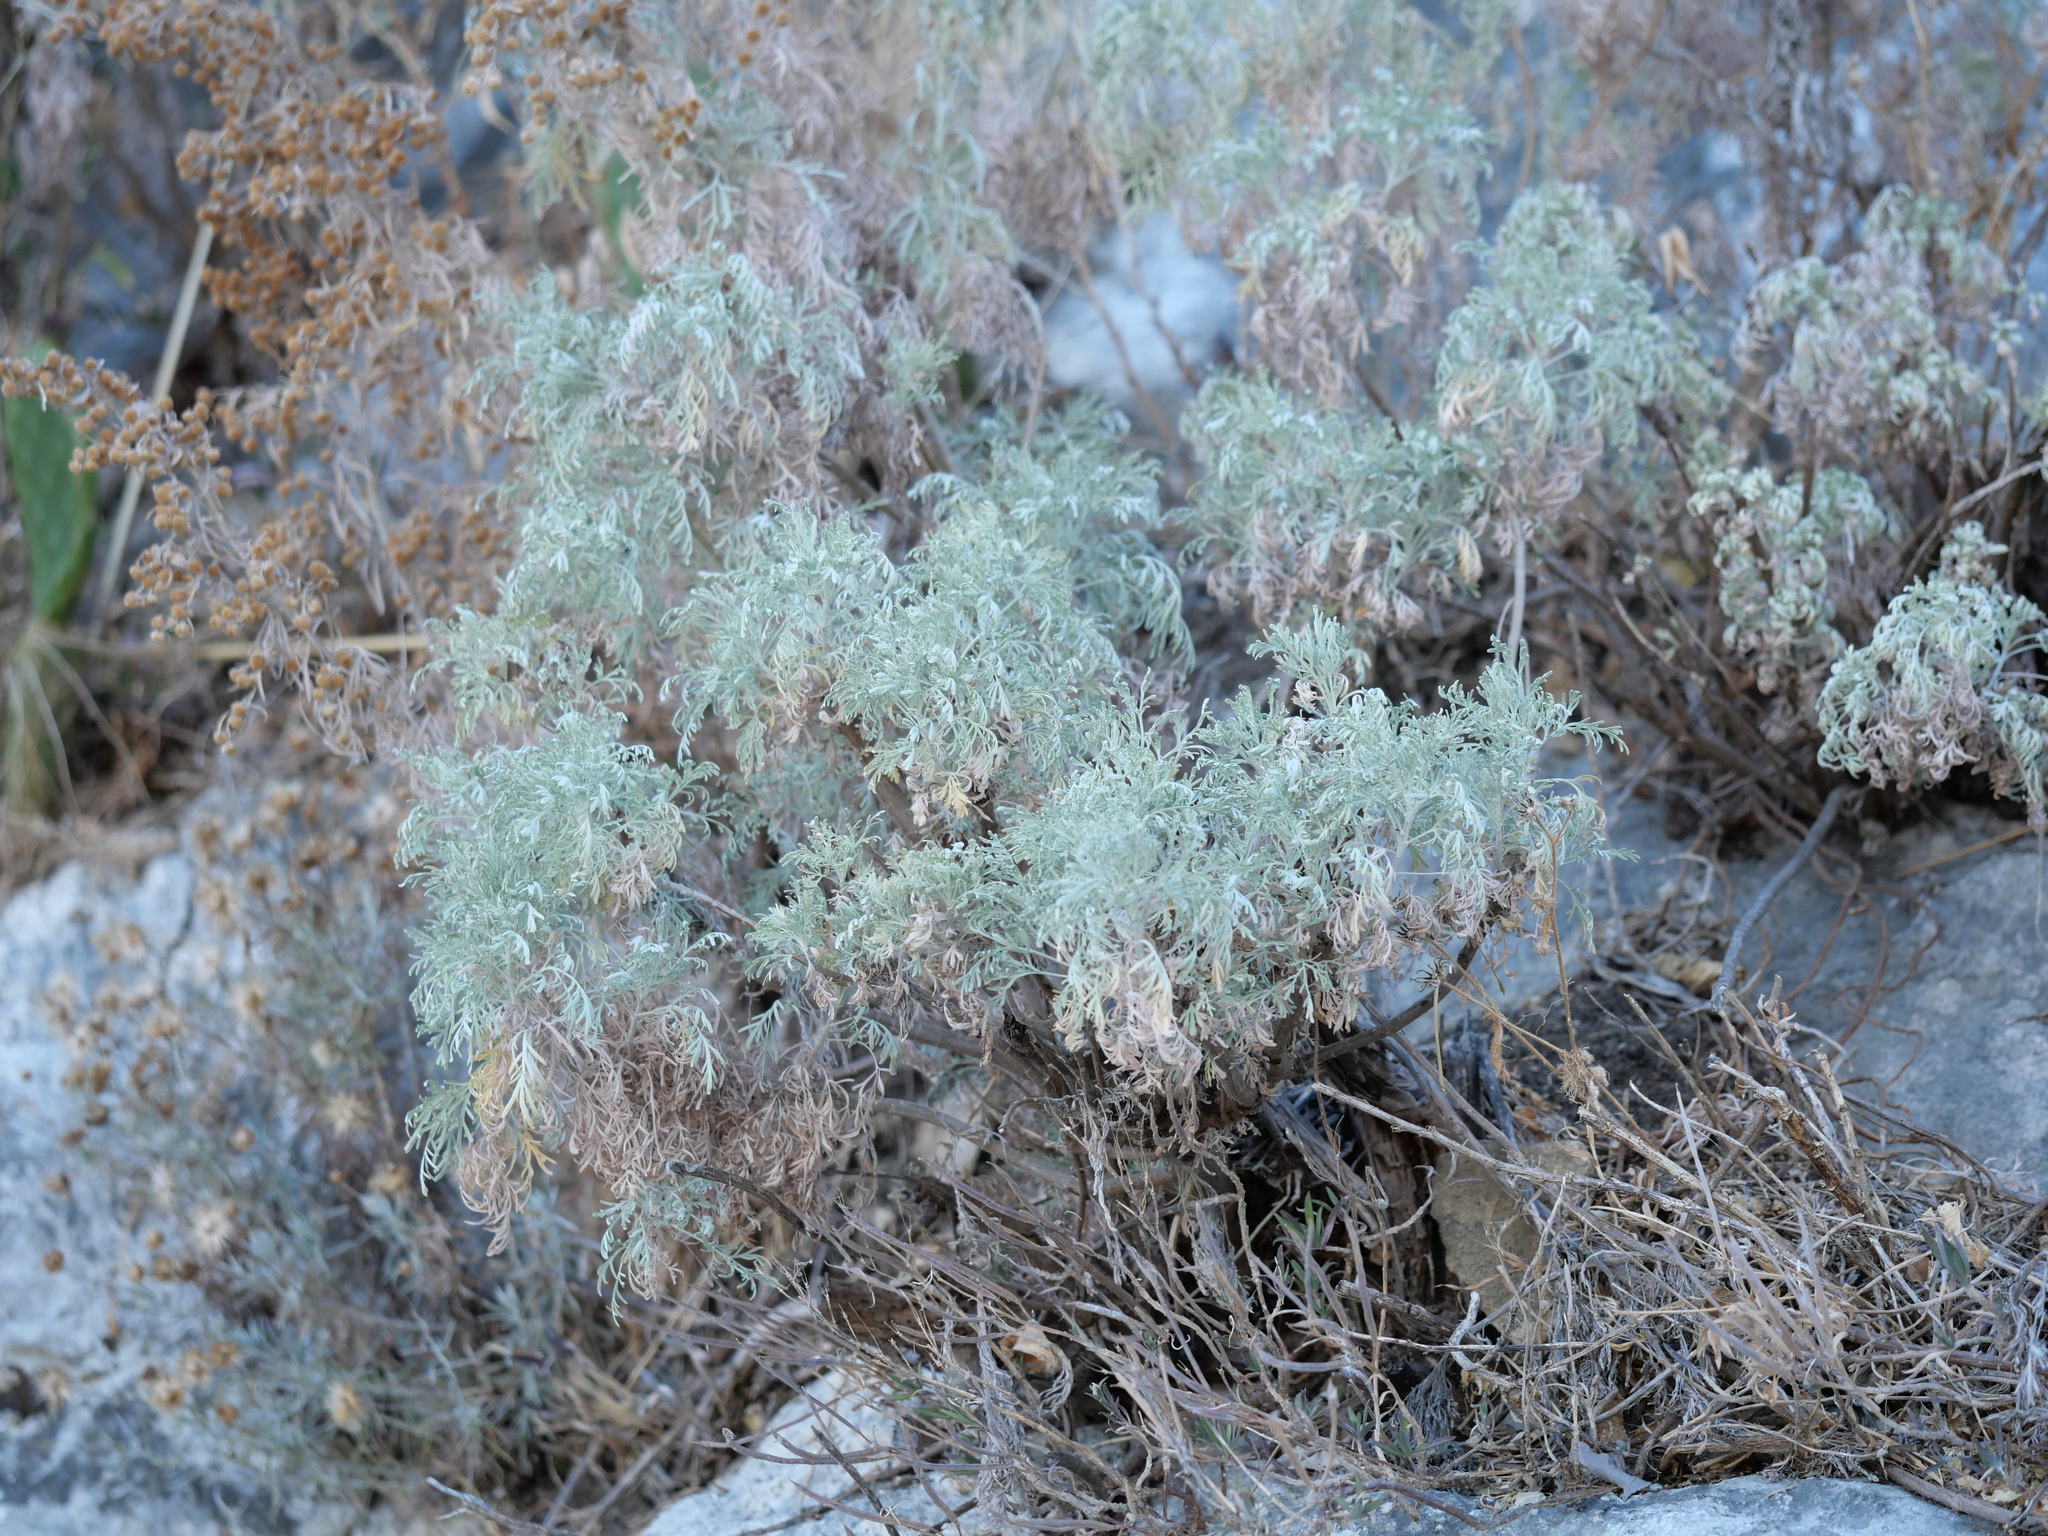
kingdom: Plantae
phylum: Tracheophyta
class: Magnoliopsida
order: Asterales
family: Asteraceae
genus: Artemisia
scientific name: Artemisia arborescens
